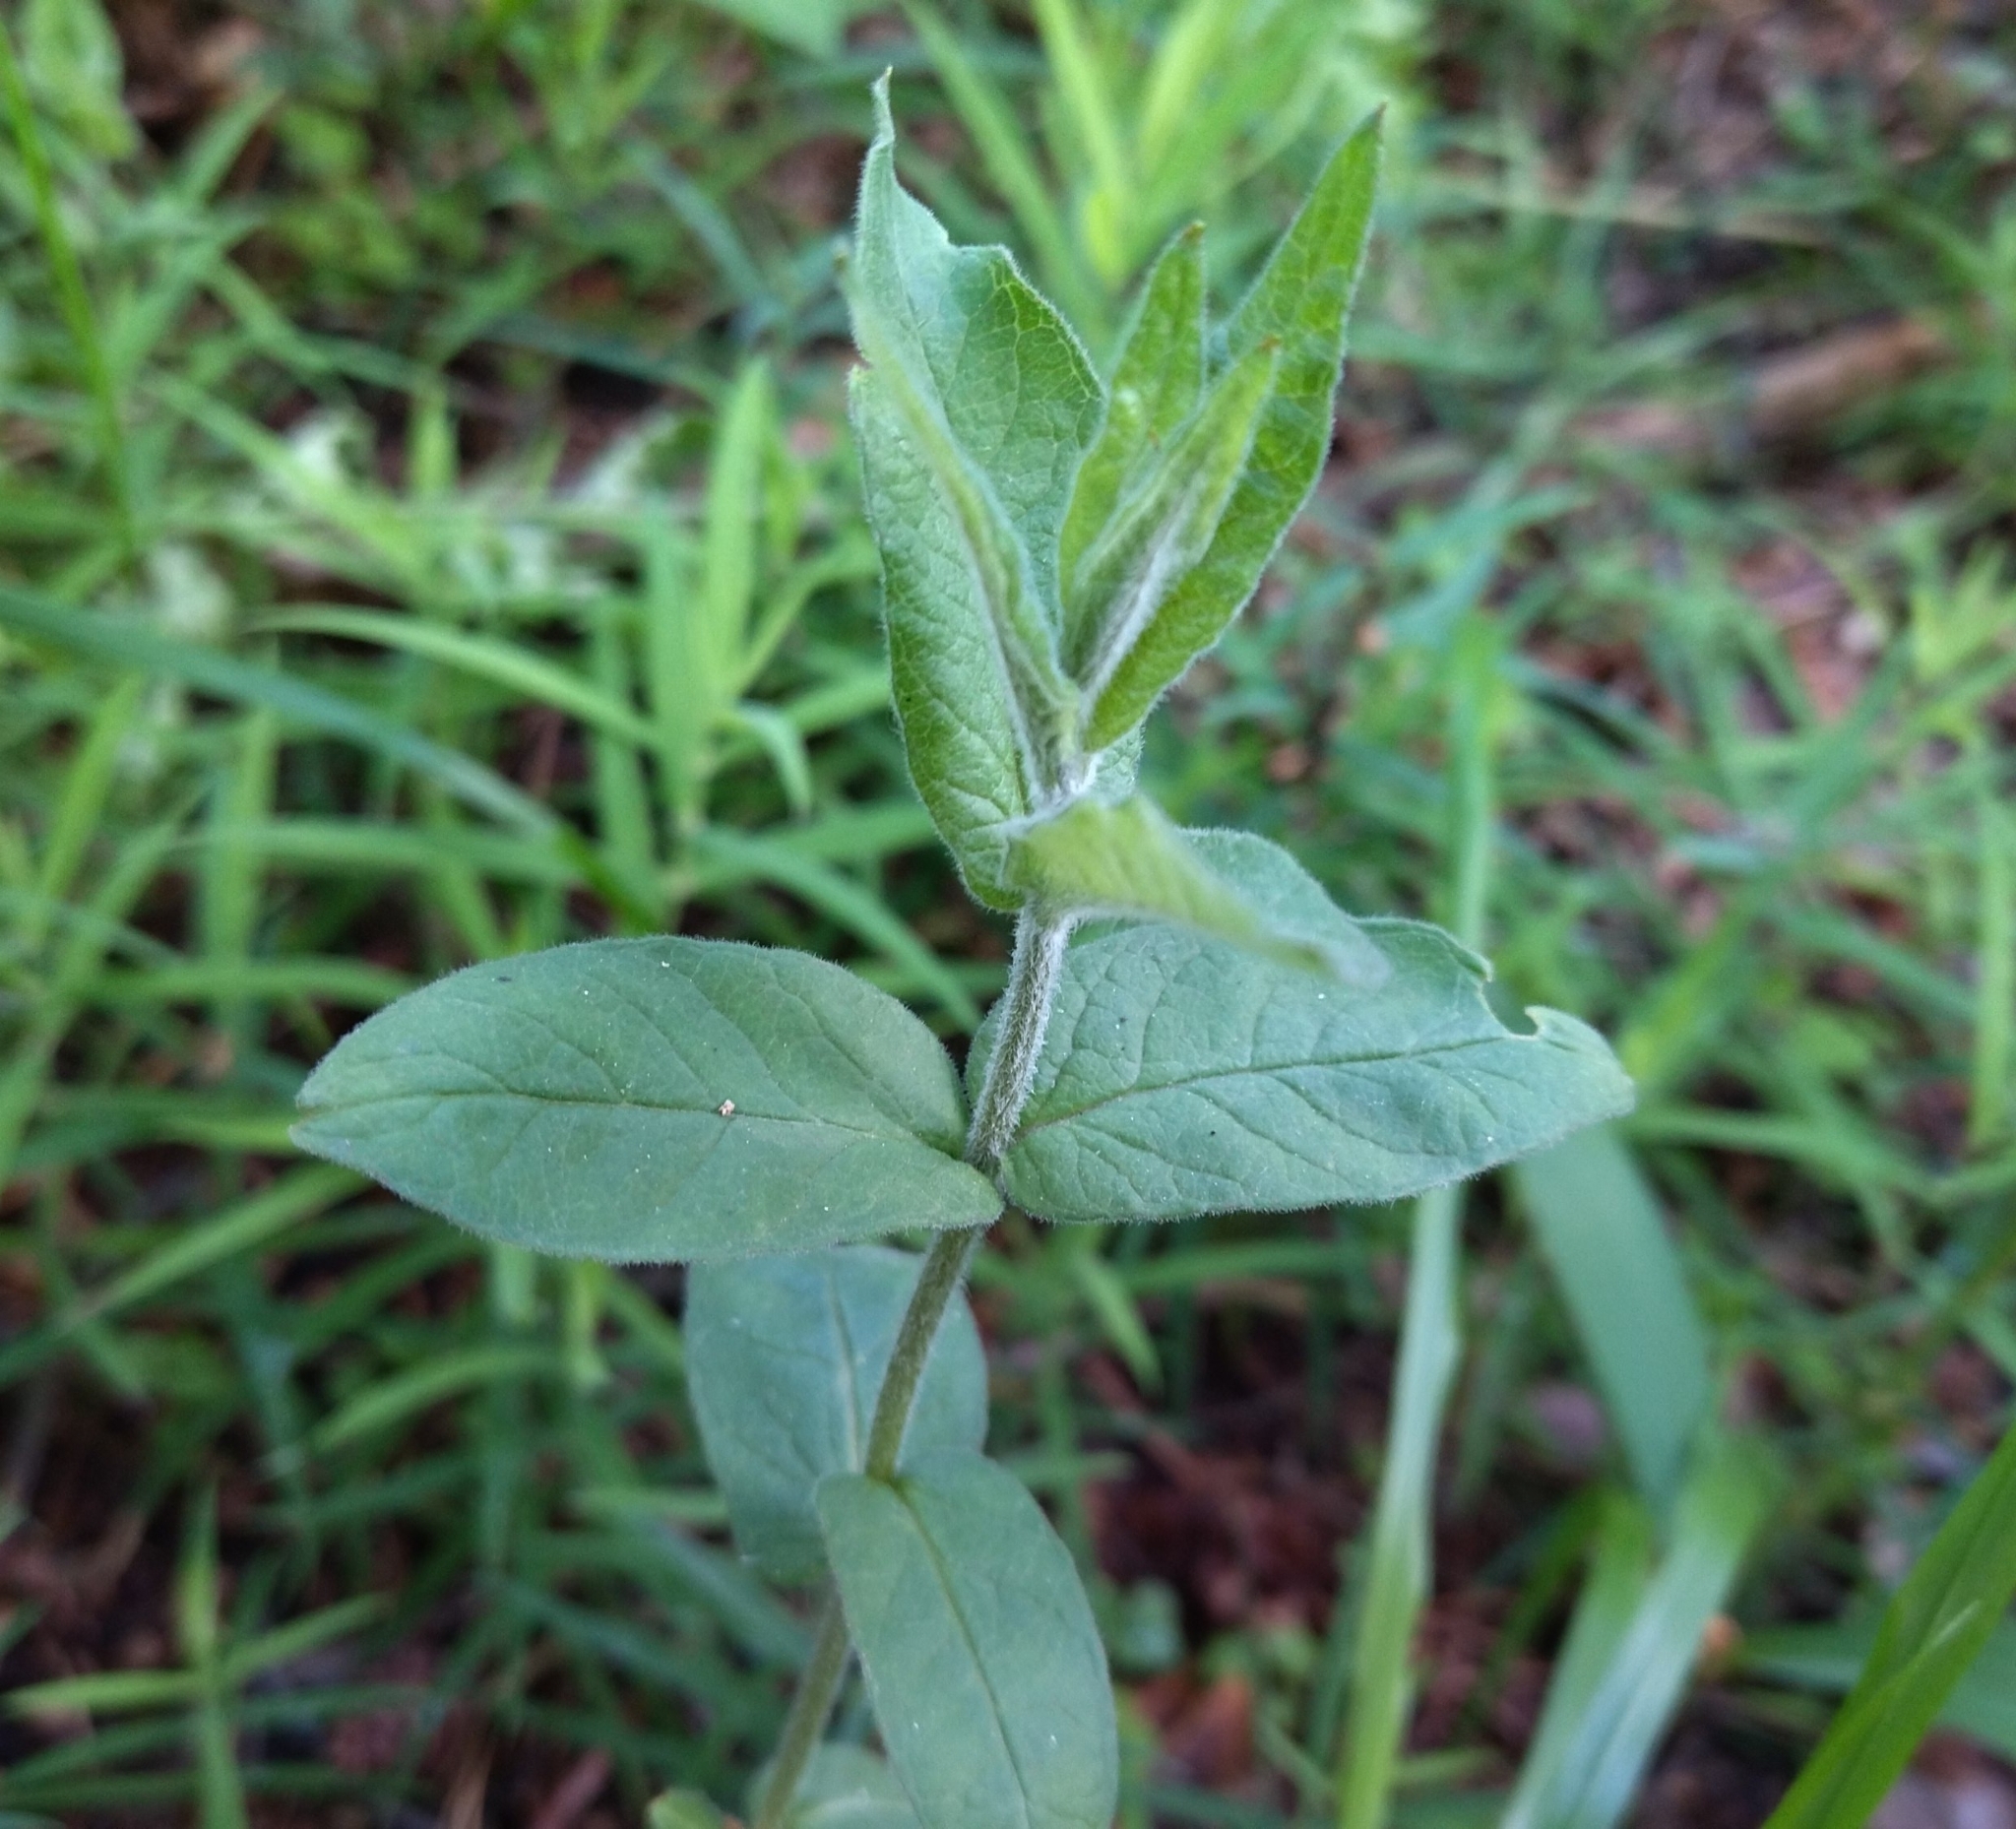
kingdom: Plantae
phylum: Tracheophyta
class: Magnoliopsida
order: Ericales
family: Primulaceae
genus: Lysimachia
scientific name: Lysimachia vulgaris
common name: Yellow loosestrife
